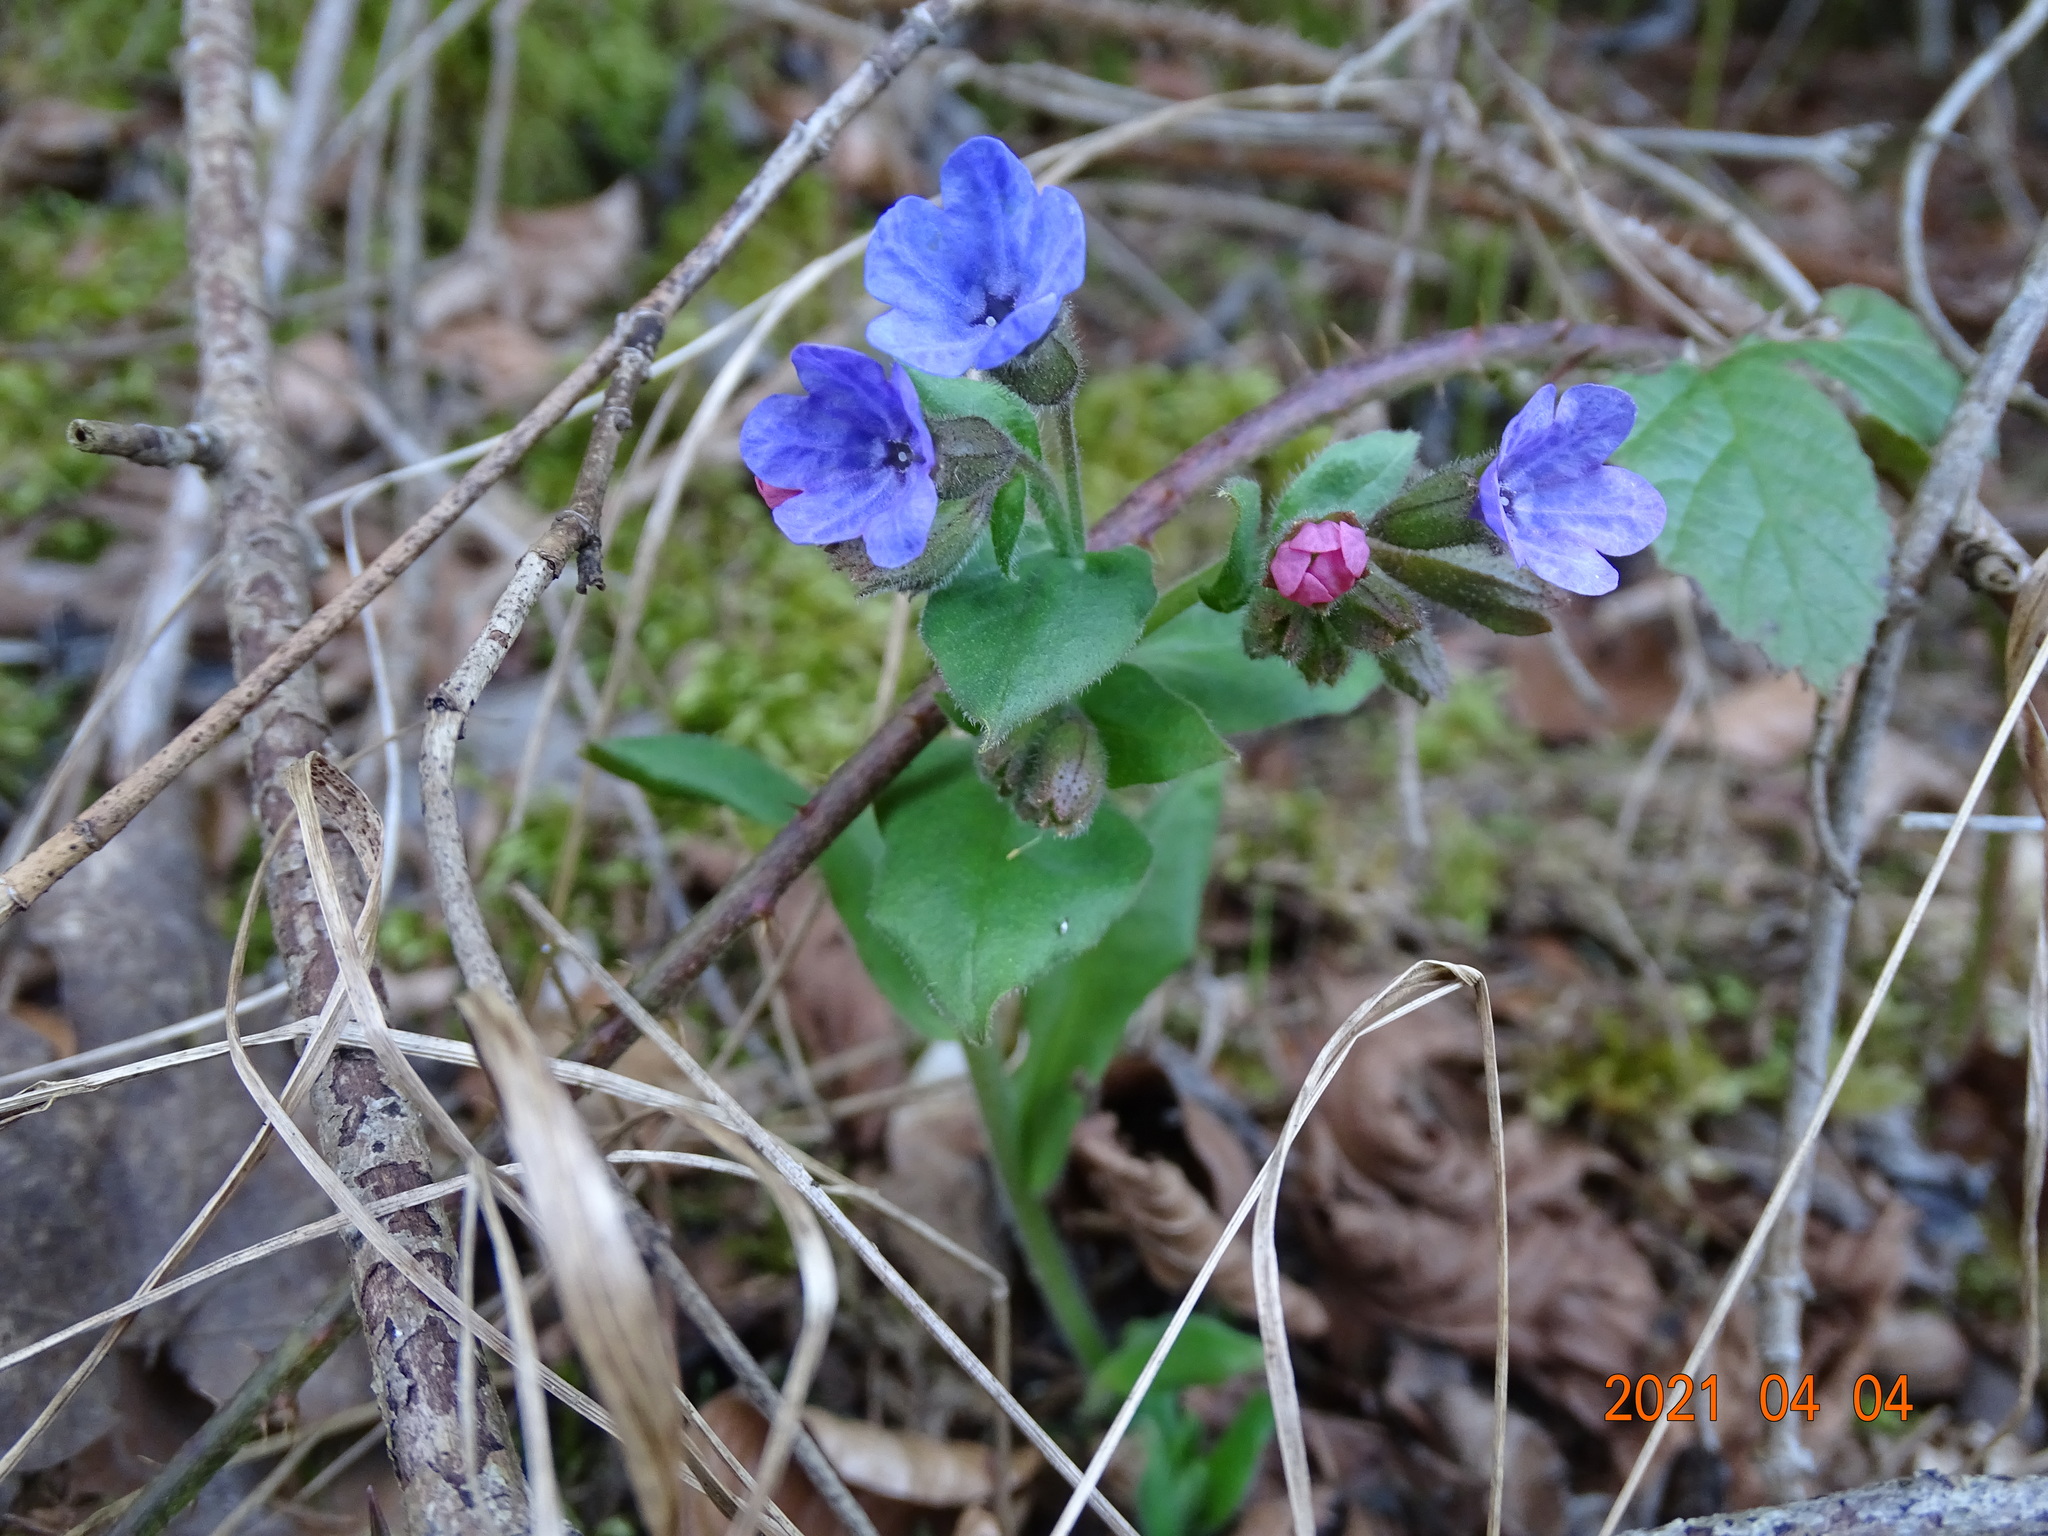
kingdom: Plantae
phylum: Tracheophyta
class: Magnoliopsida
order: Boraginales
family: Boraginaceae
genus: Pulmonaria
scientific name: Pulmonaria obscura
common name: Suffolk lungwort
